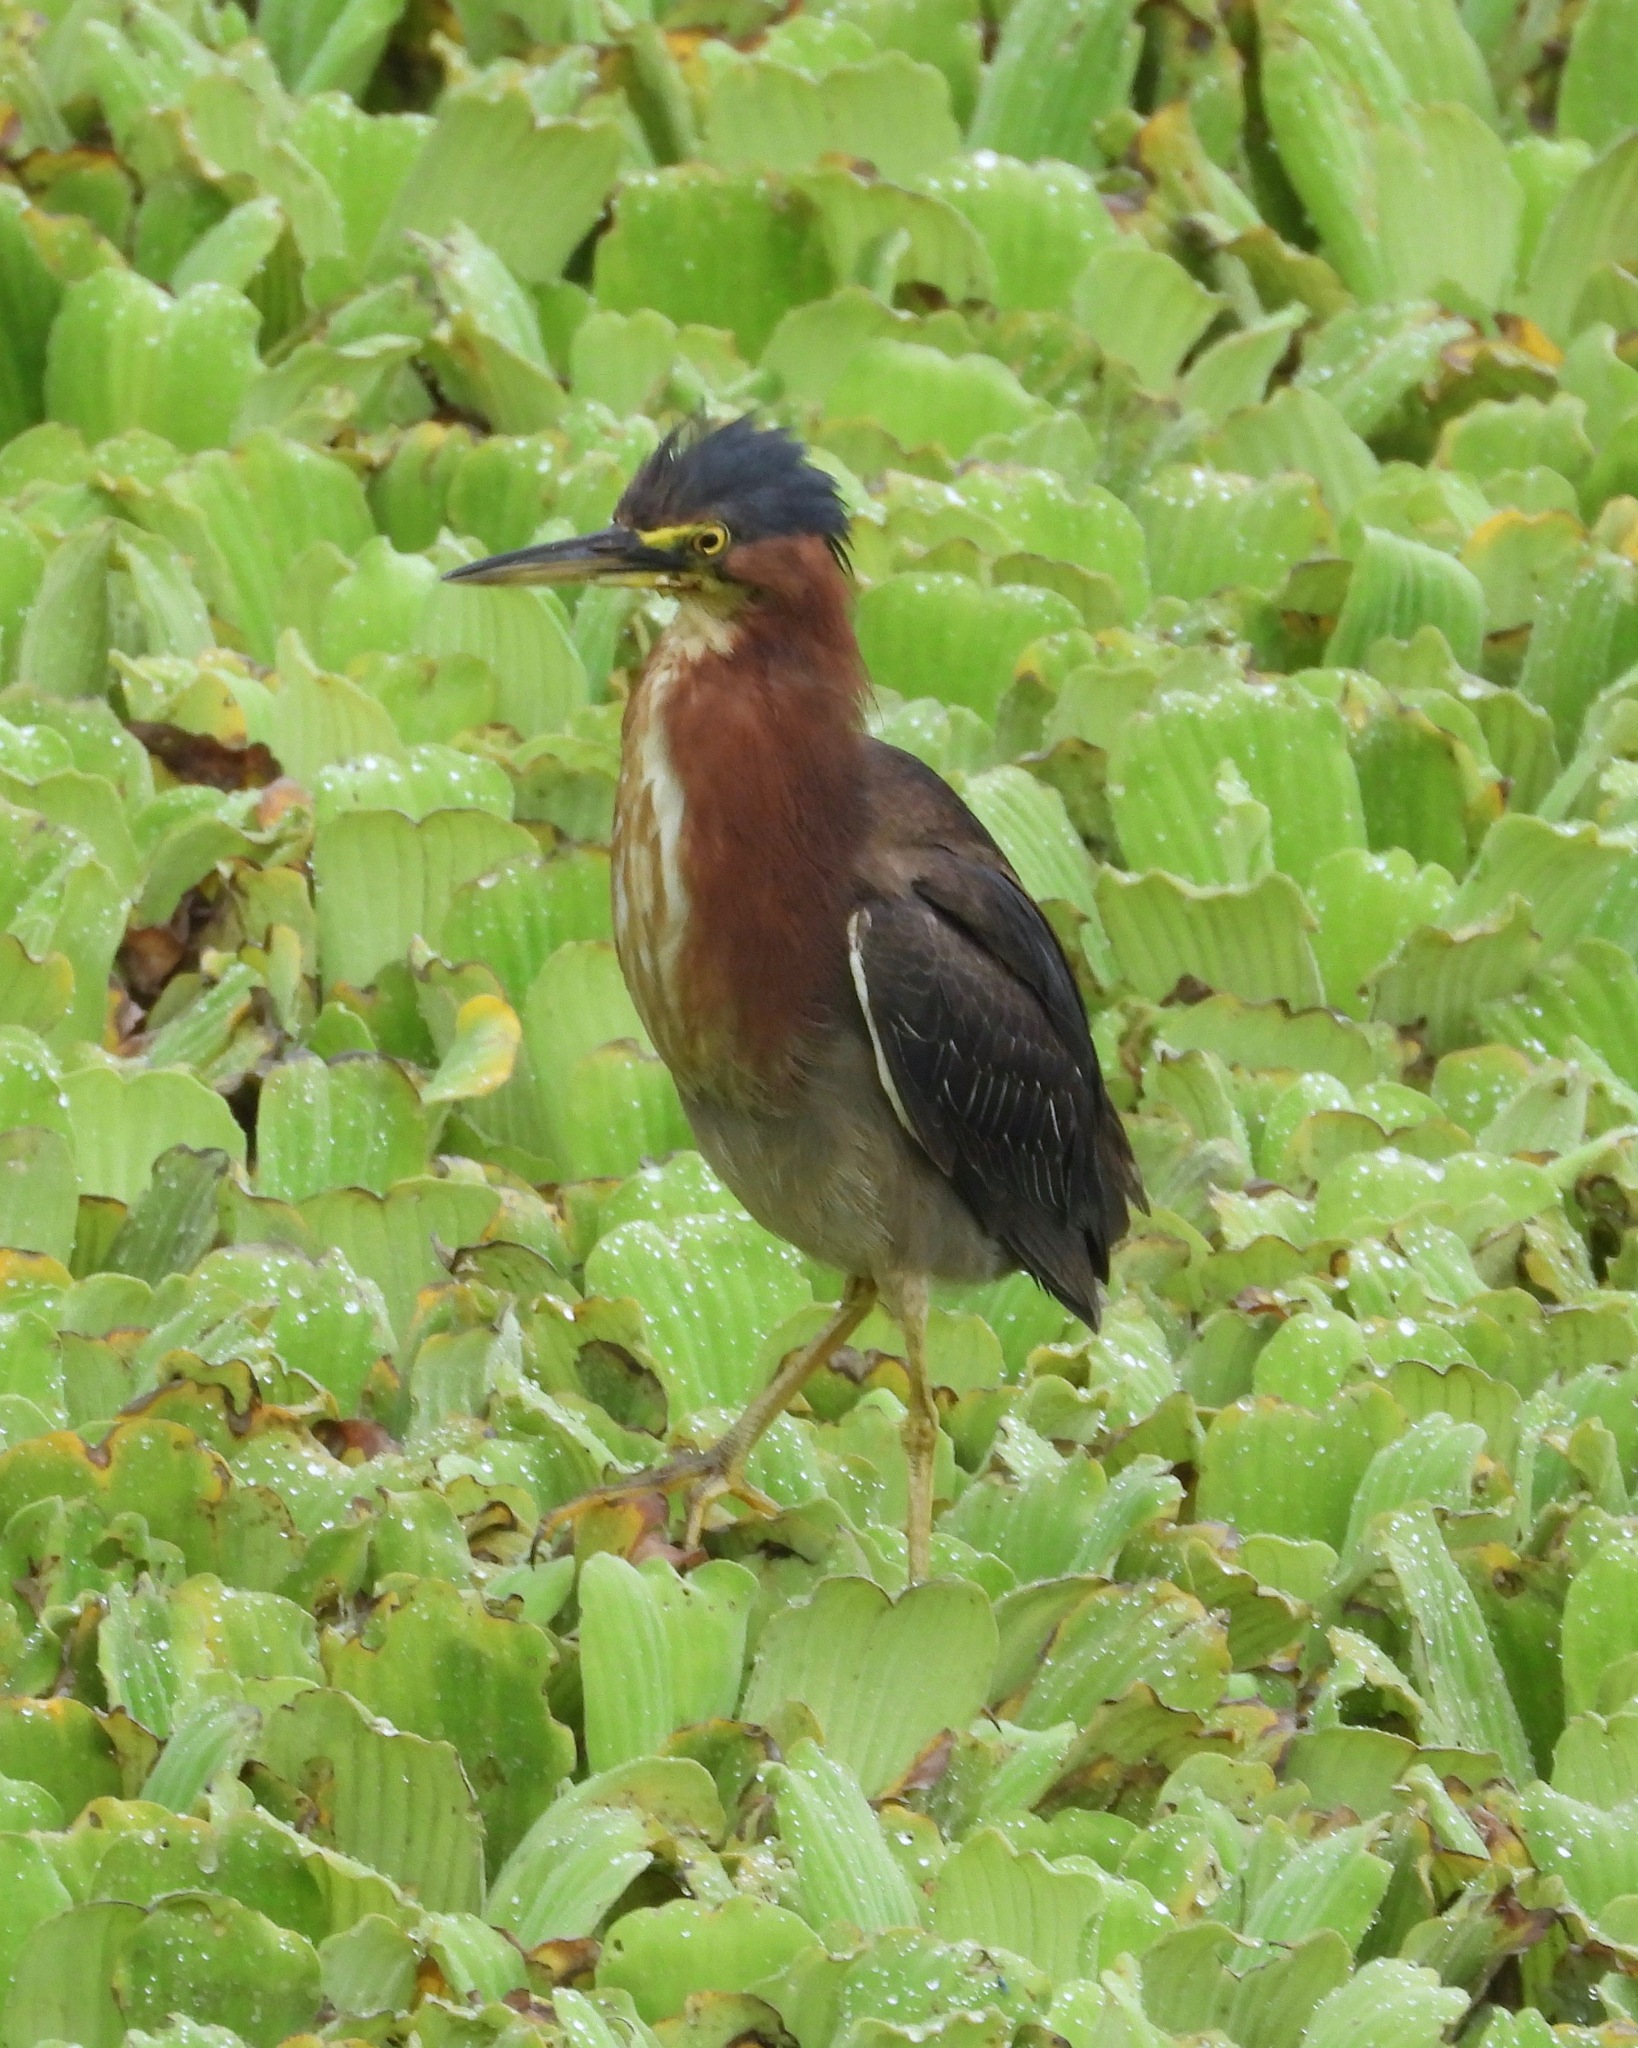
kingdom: Animalia
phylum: Chordata
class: Aves
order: Pelecaniformes
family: Ardeidae
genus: Butorides
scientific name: Butorides virescens
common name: Green heron
